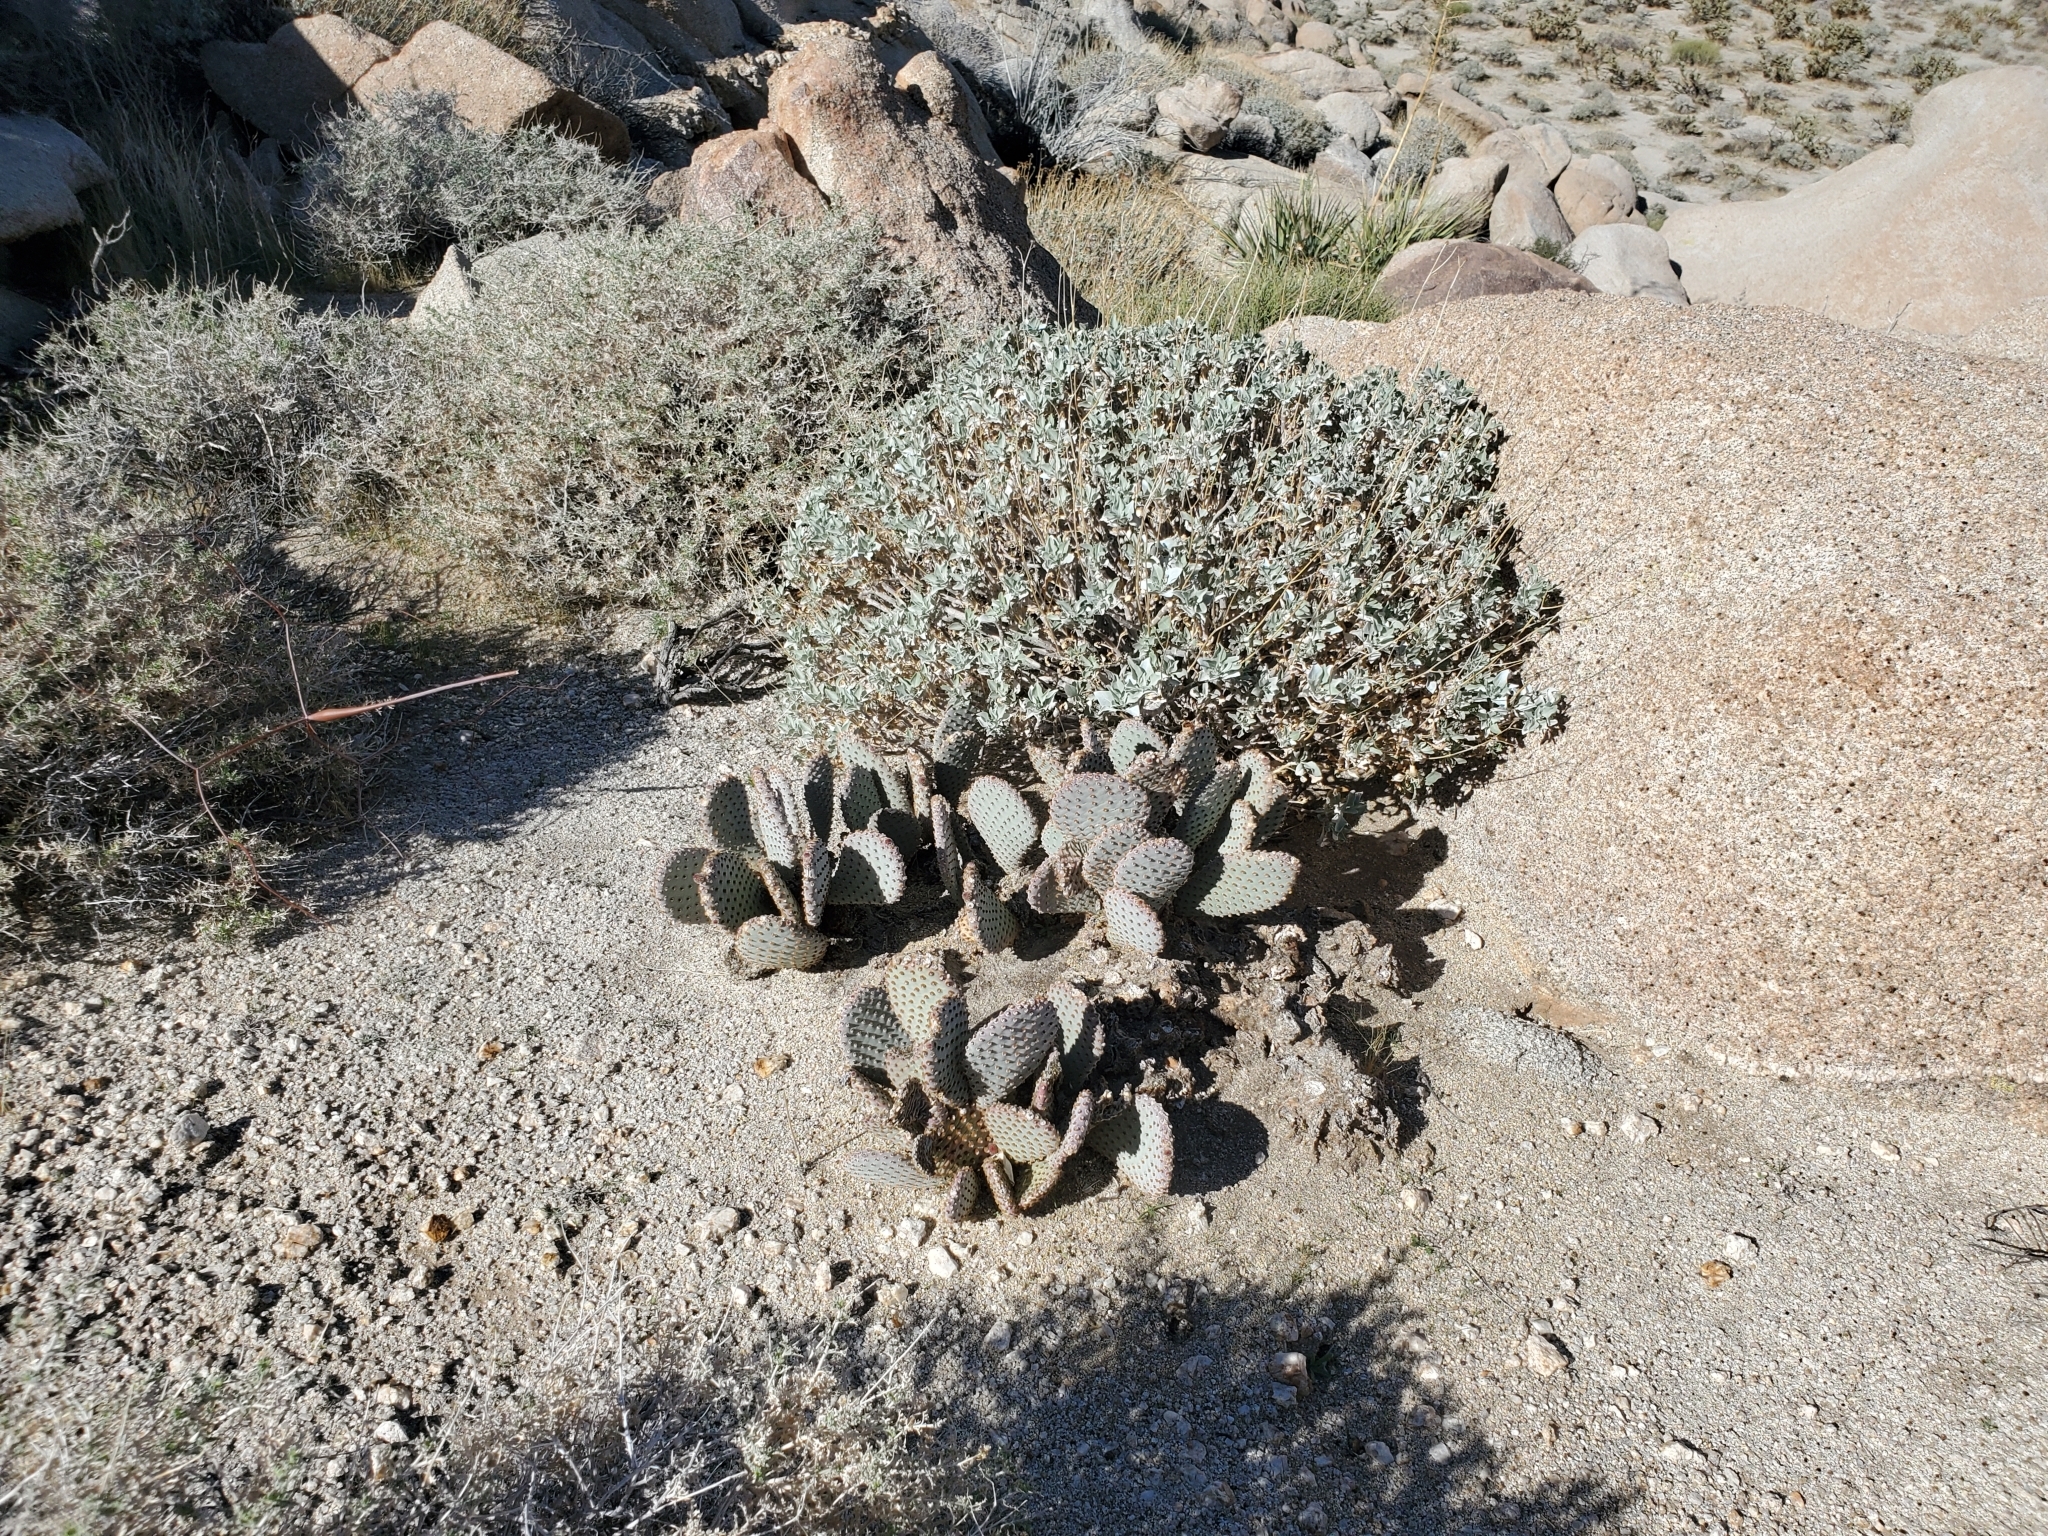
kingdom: Plantae
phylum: Tracheophyta
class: Magnoliopsida
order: Caryophyllales
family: Cactaceae
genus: Opuntia
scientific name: Opuntia basilaris
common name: Beavertail prickly-pear
